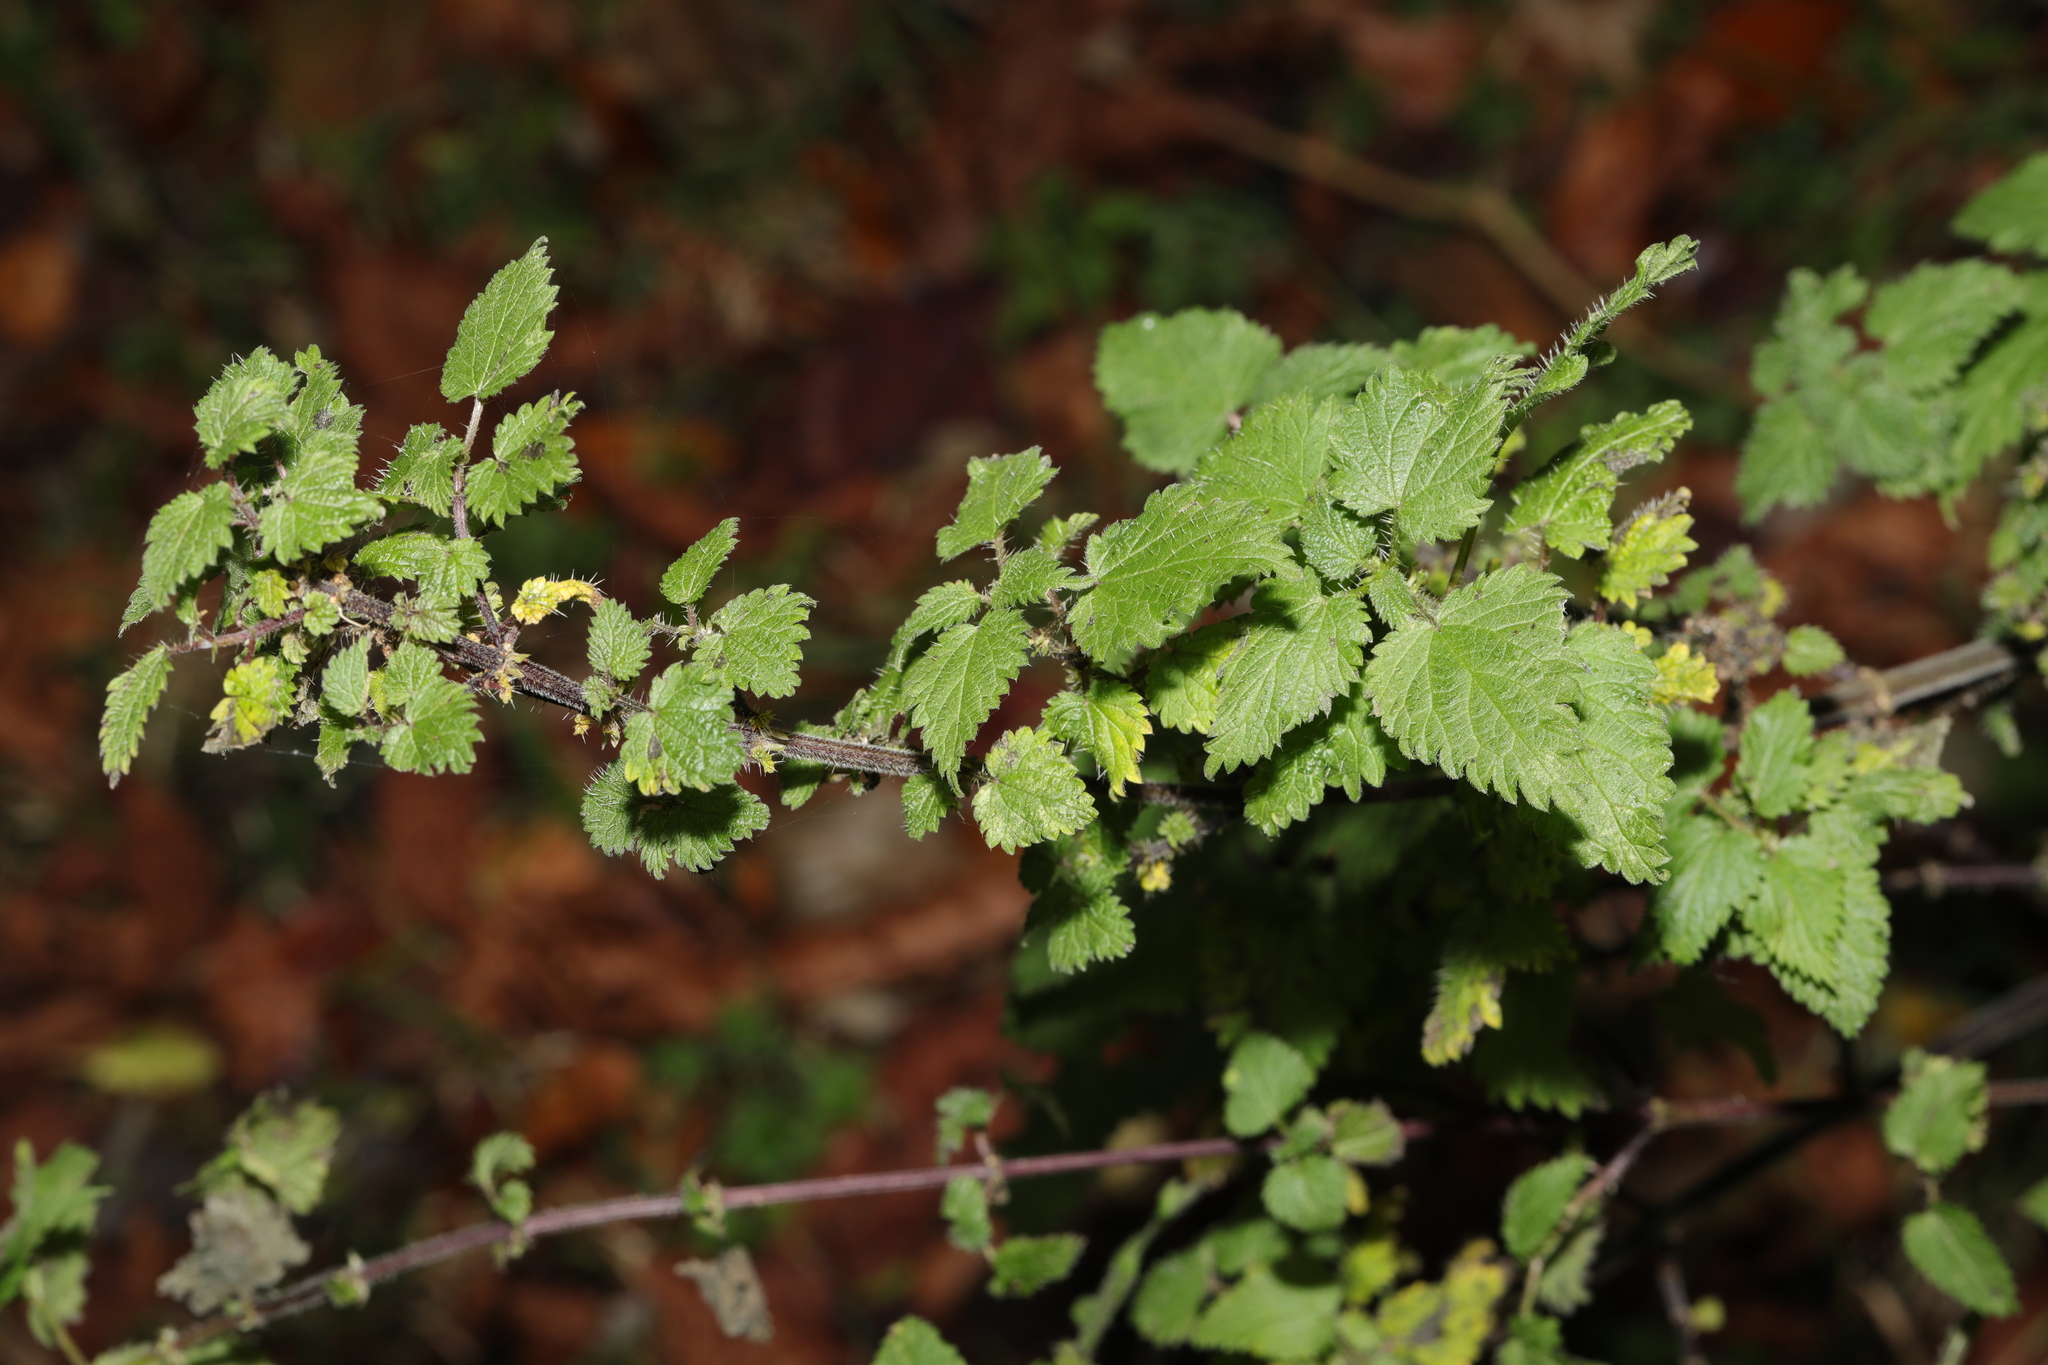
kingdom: Plantae
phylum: Tracheophyta
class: Magnoliopsida
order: Rosales
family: Urticaceae
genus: Urtica
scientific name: Urtica dioica
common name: Common nettle
